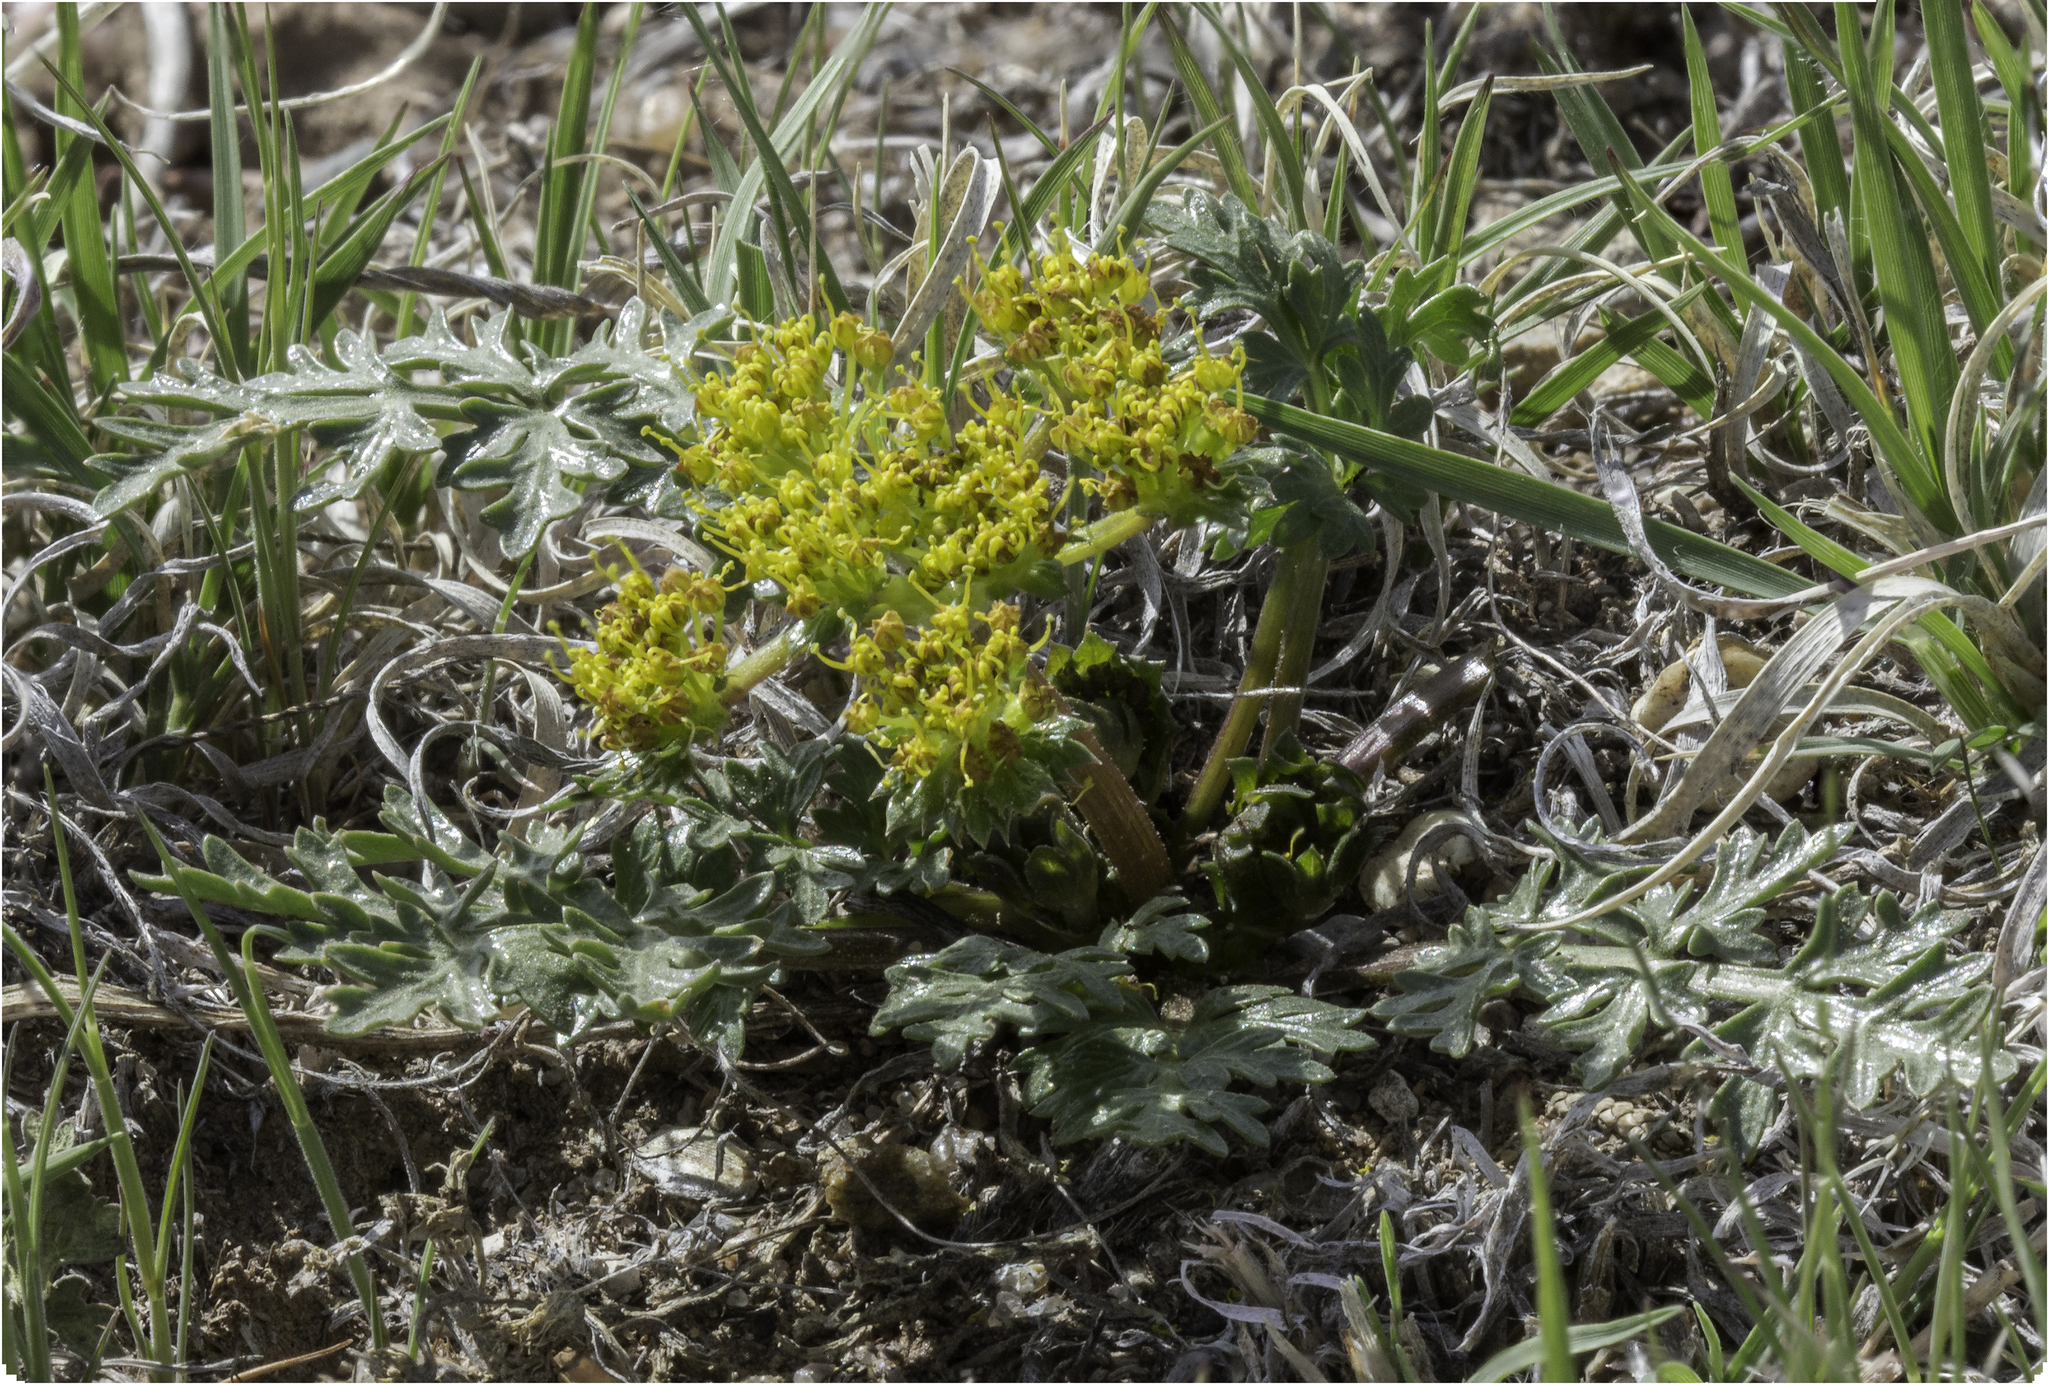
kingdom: Plantae
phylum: Tracheophyta
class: Magnoliopsida
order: Apiales
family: Apiaceae
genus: Cymopterus
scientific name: Cymopterus glomeratus
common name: Plains spring parsley
